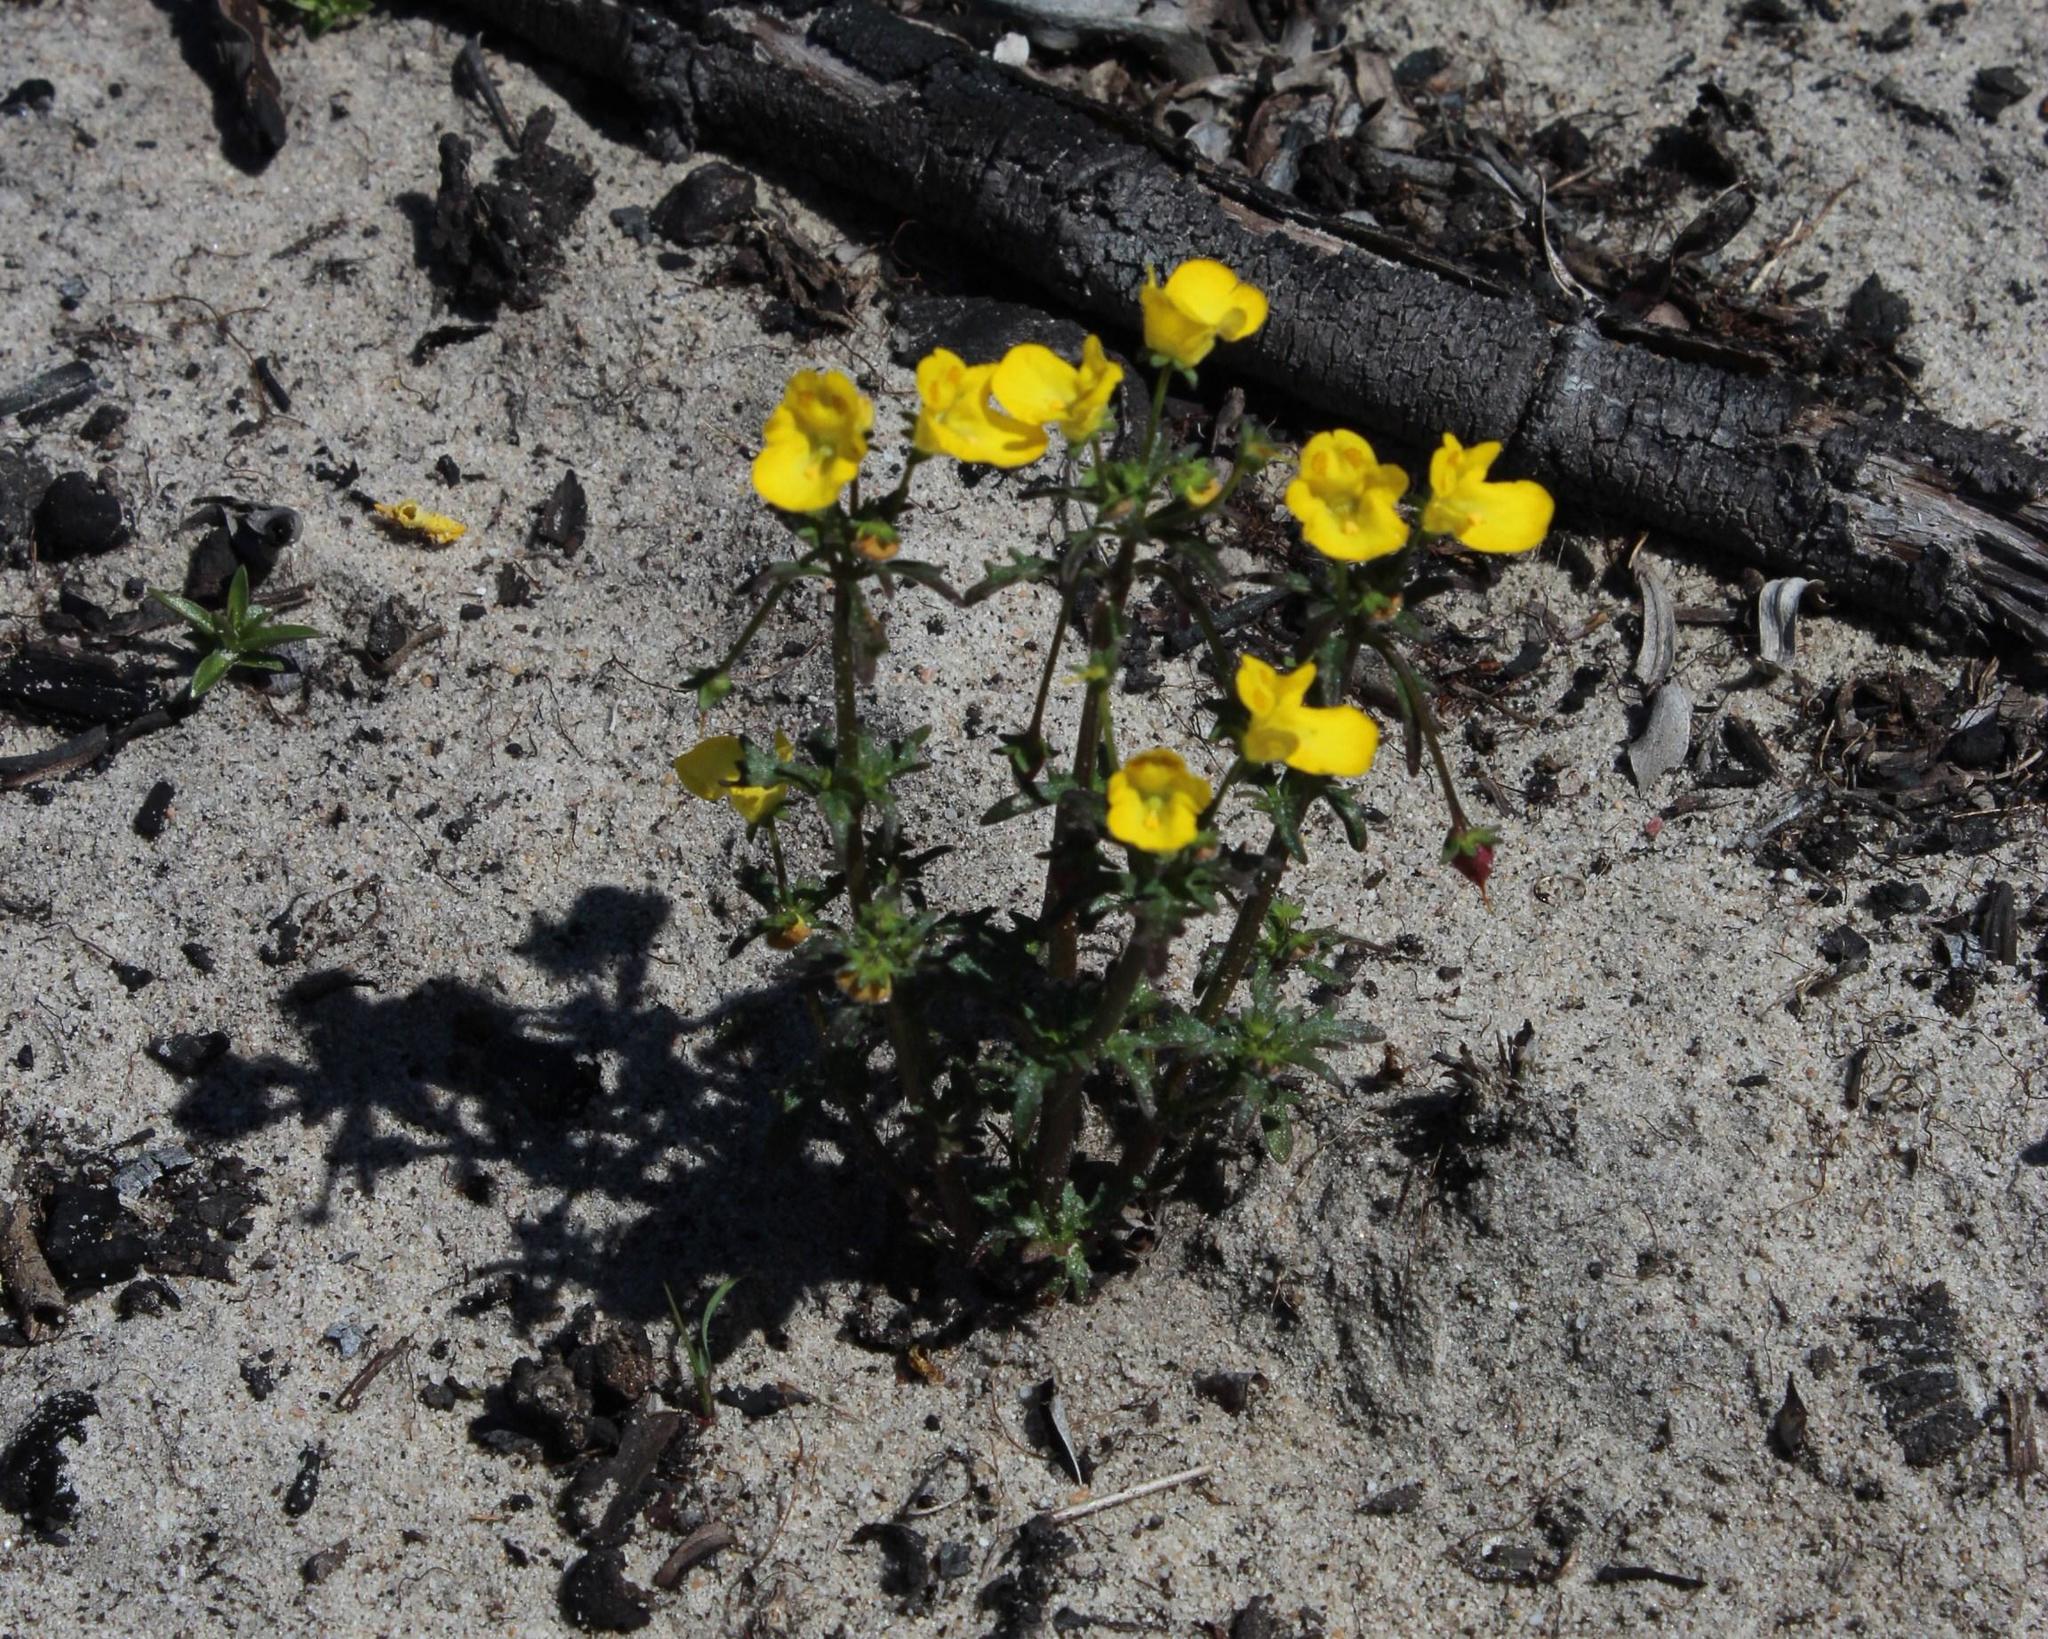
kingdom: Plantae
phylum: Tracheophyta
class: Magnoliopsida
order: Lamiales
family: Scrophulariaceae
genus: Hemimeris
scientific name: Hemimeris sabulosa
